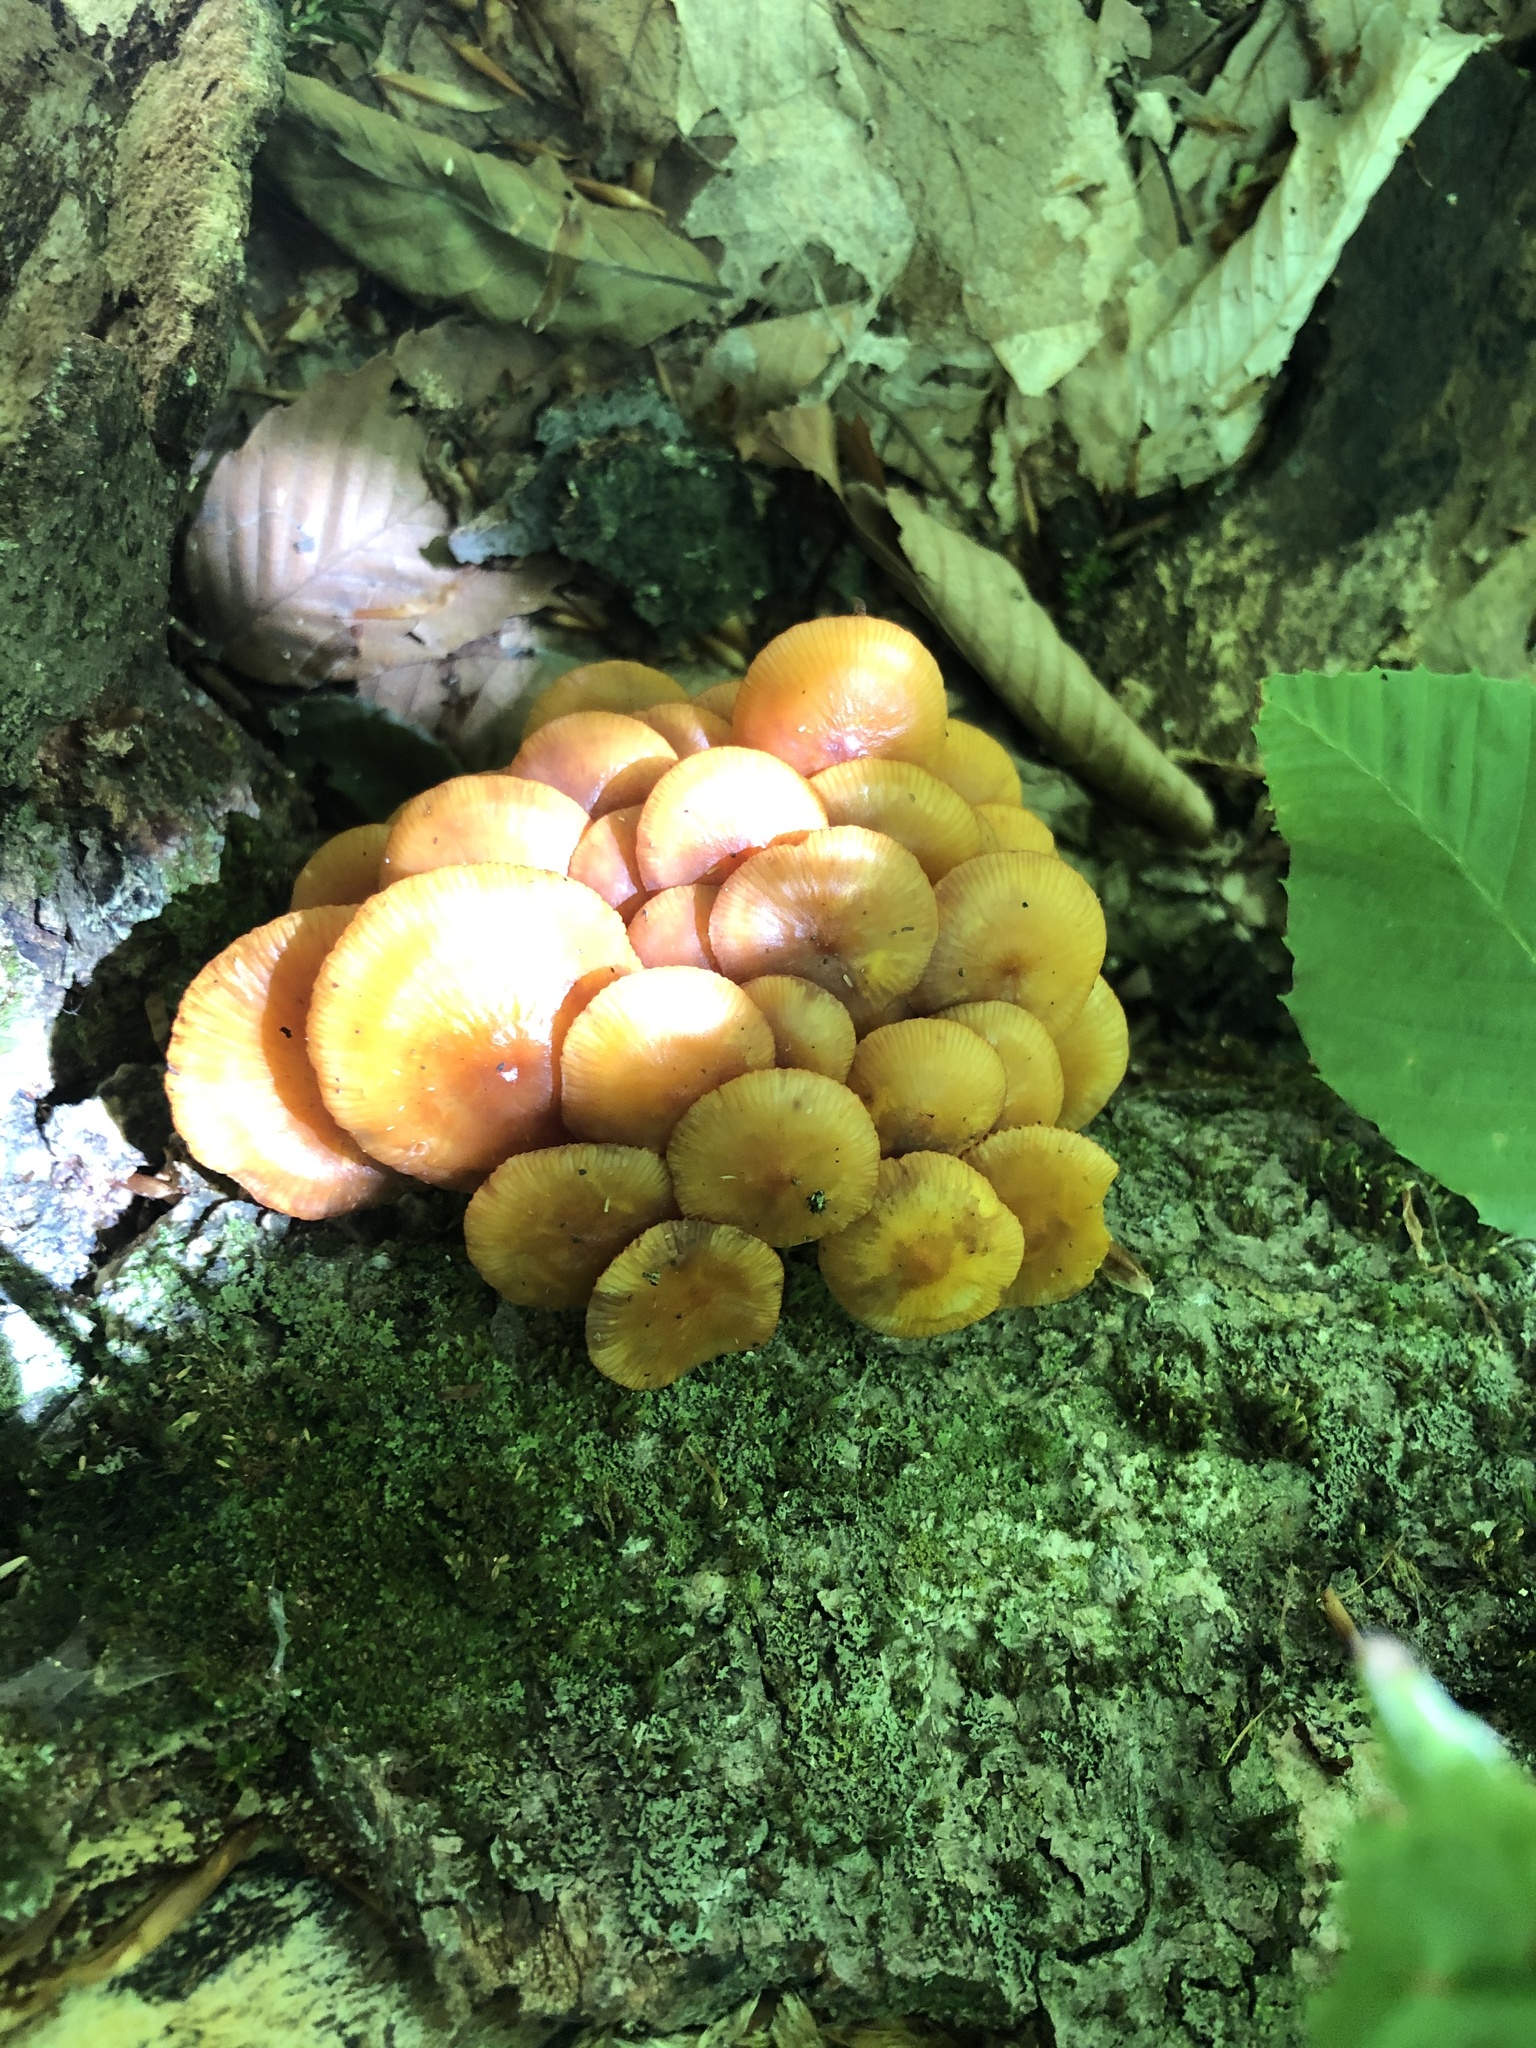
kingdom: Fungi
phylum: Basidiomycota
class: Agaricomycetes
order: Agaricales
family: Mycenaceae
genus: Mycena
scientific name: Mycena leaiana
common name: Orange mycena
